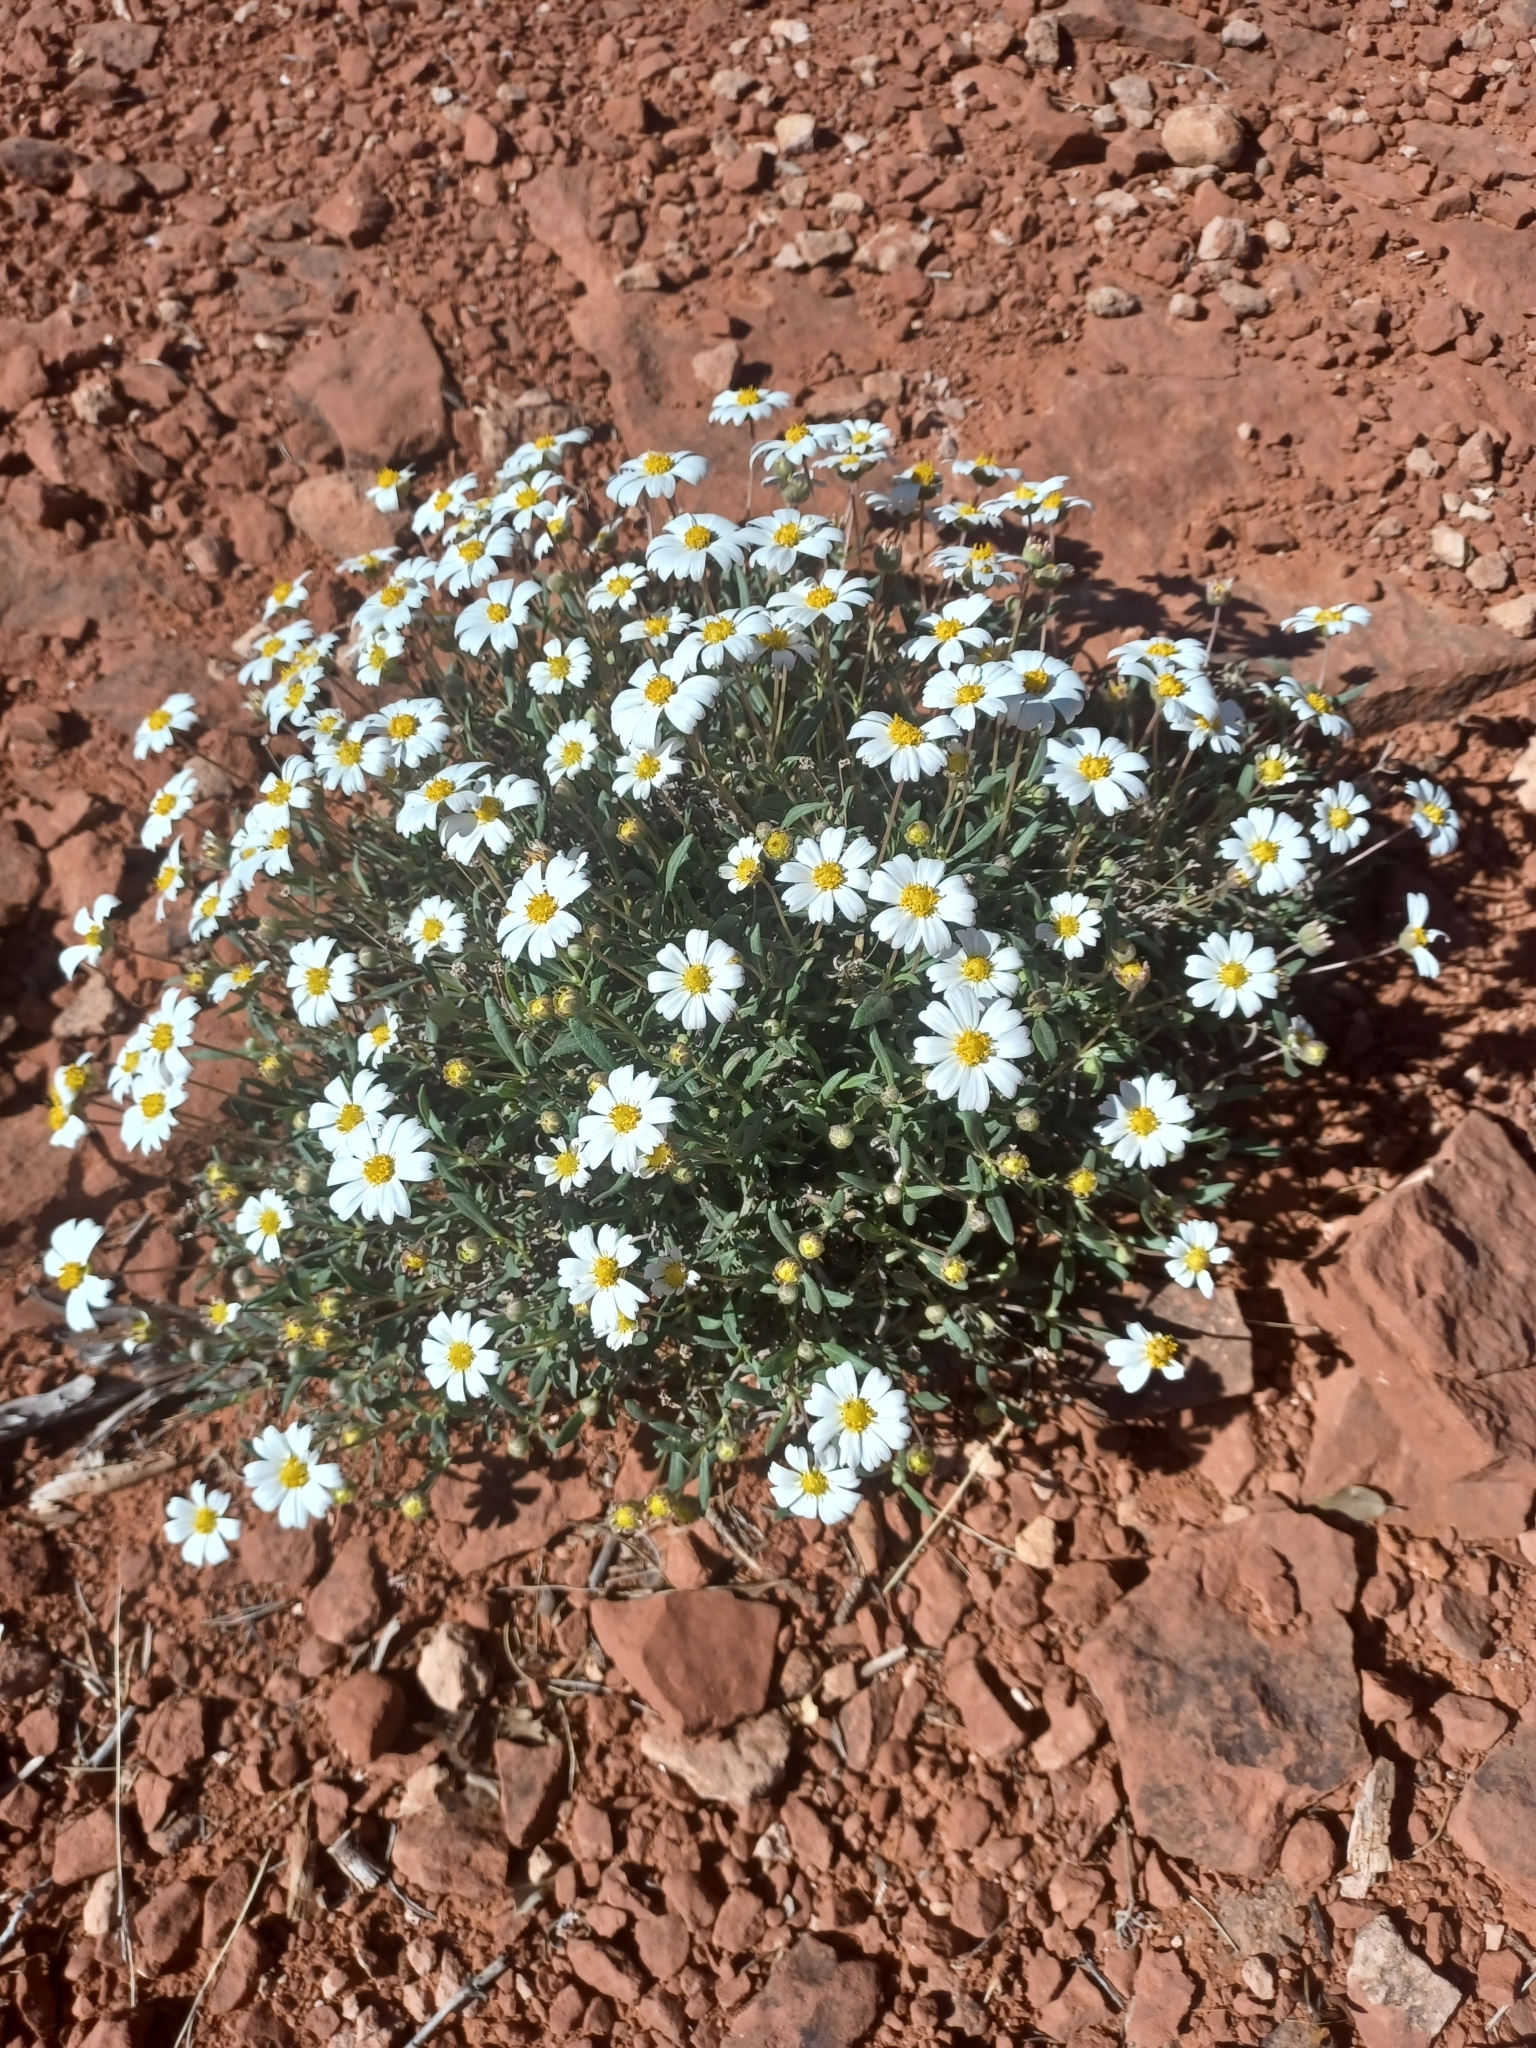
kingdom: Plantae
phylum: Tracheophyta
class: Magnoliopsida
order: Asterales
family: Asteraceae
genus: Melampodium
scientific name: Melampodium leucanthum
